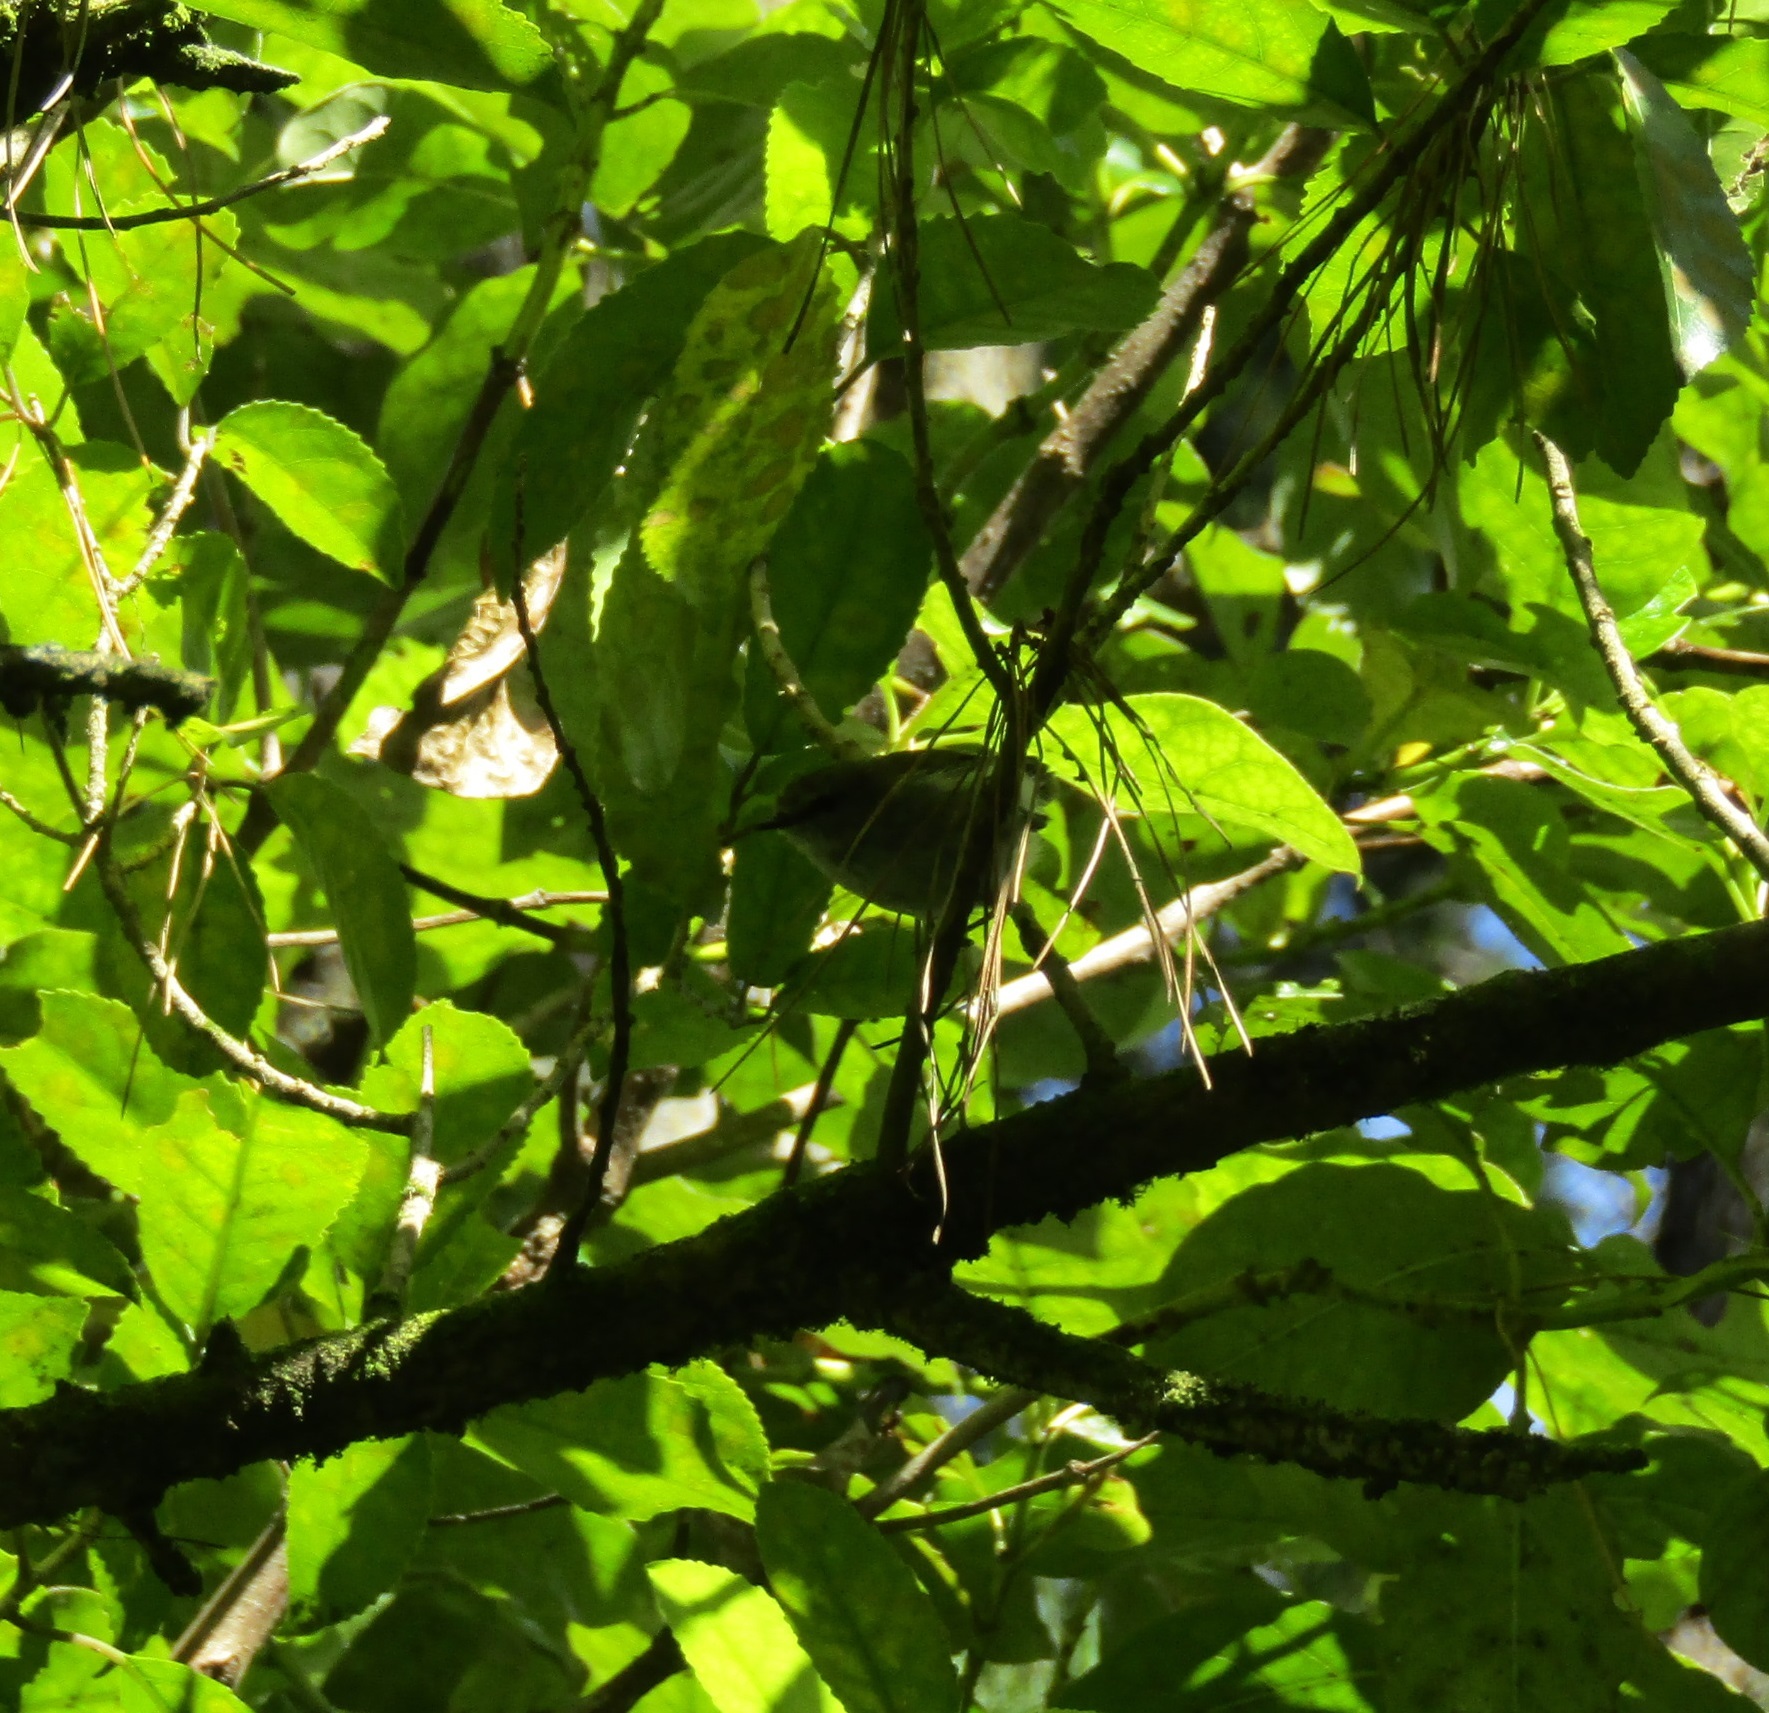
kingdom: Animalia
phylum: Chordata
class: Aves
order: Passeriformes
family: Acanthizidae
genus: Gerygone
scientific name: Gerygone igata
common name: Grey gerygone
